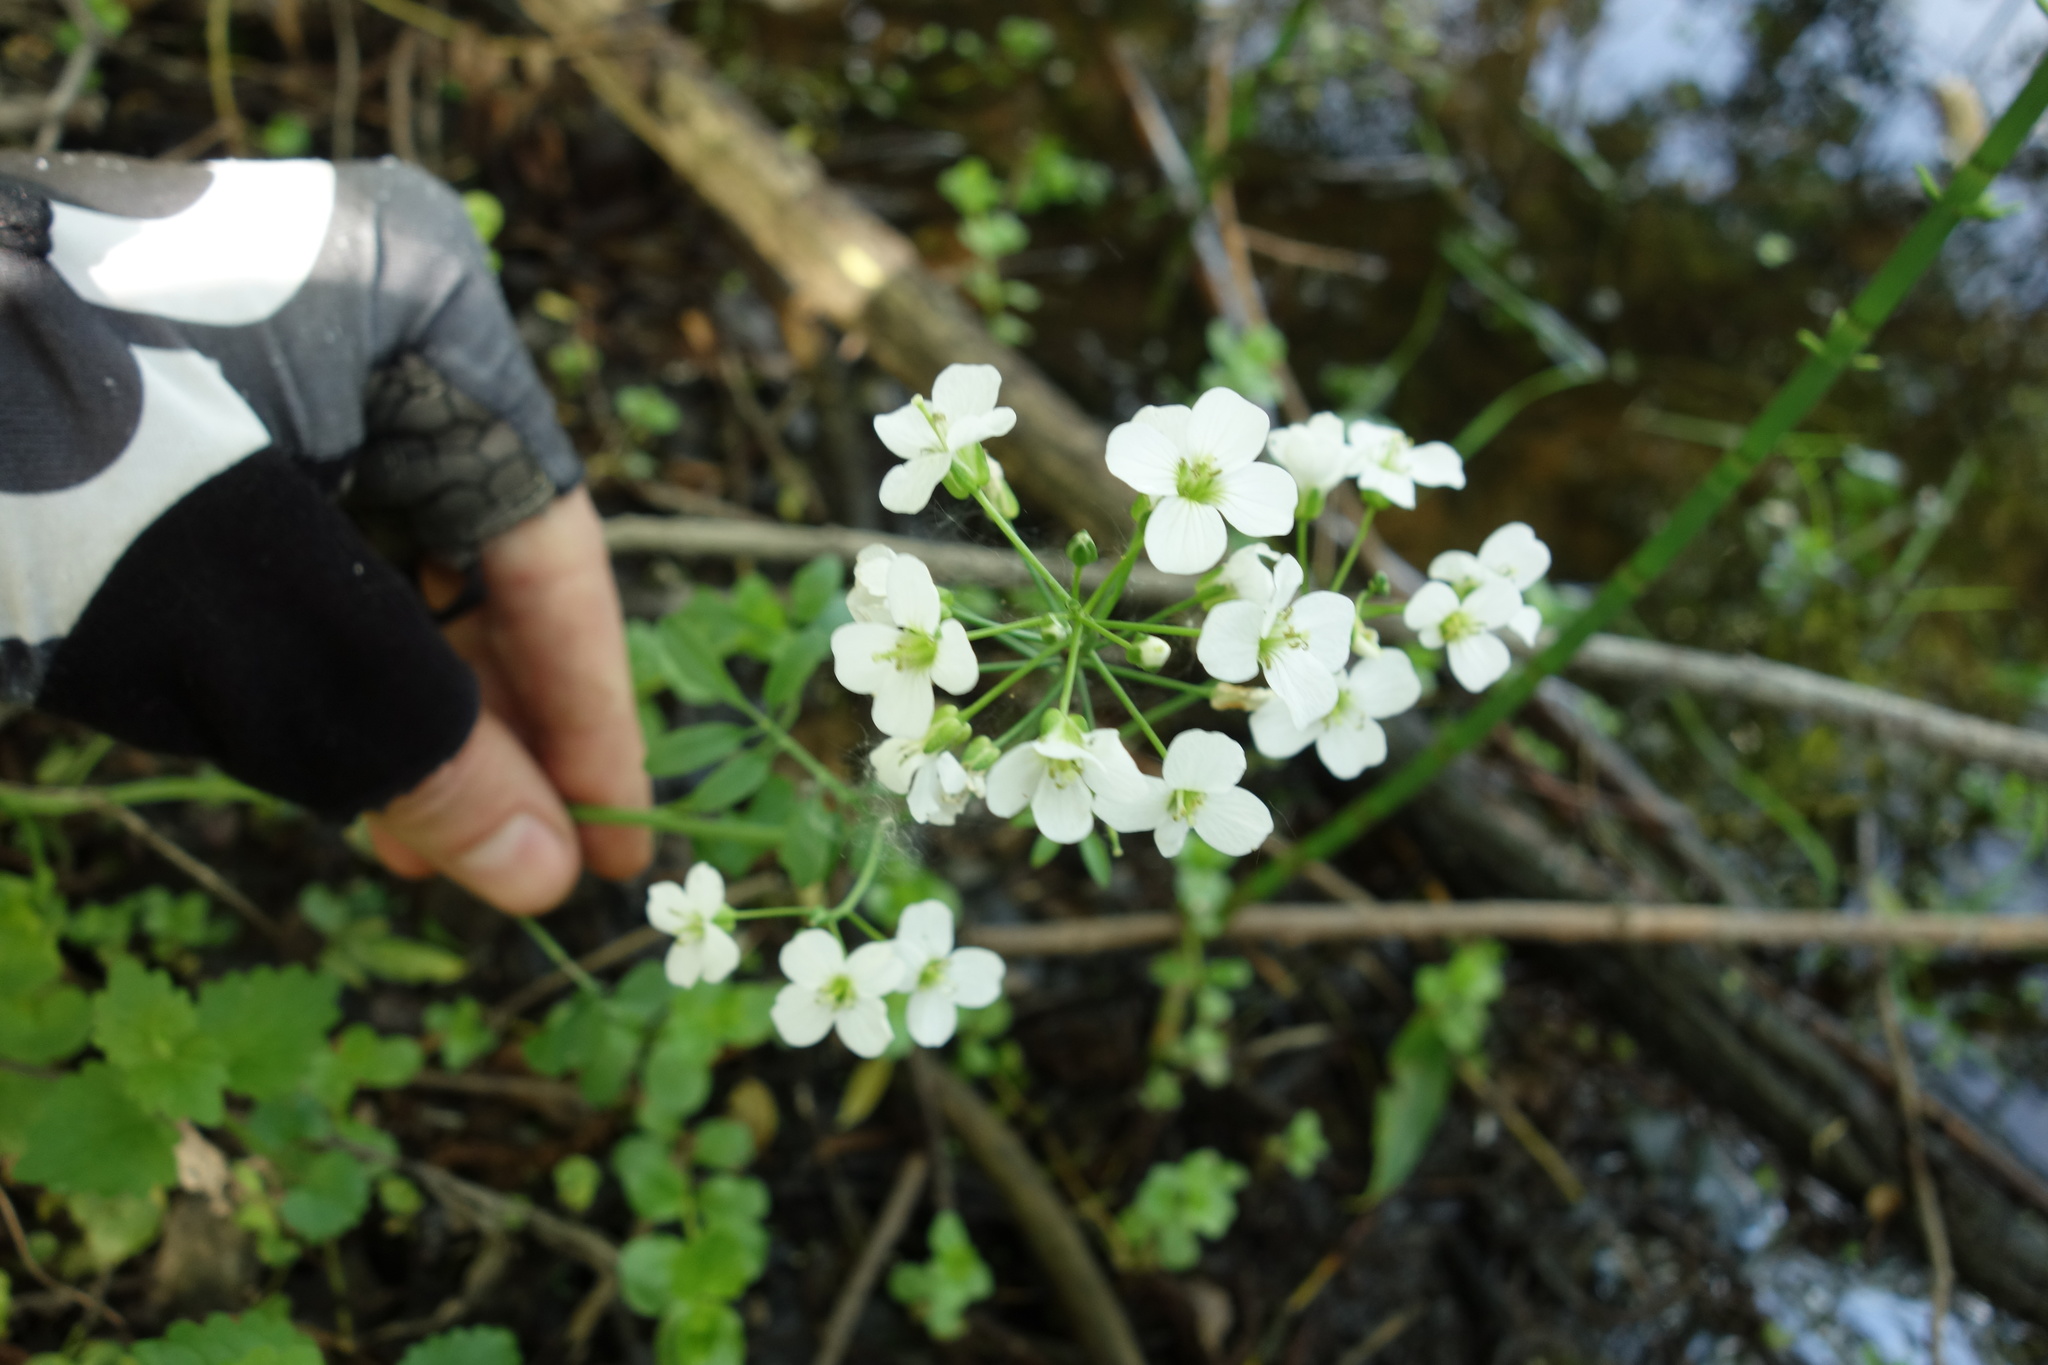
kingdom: Plantae
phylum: Tracheophyta
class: Magnoliopsida
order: Brassicales
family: Brassicaceae
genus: Cardamine
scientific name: Cardamine dentata
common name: Toothed bittercress
